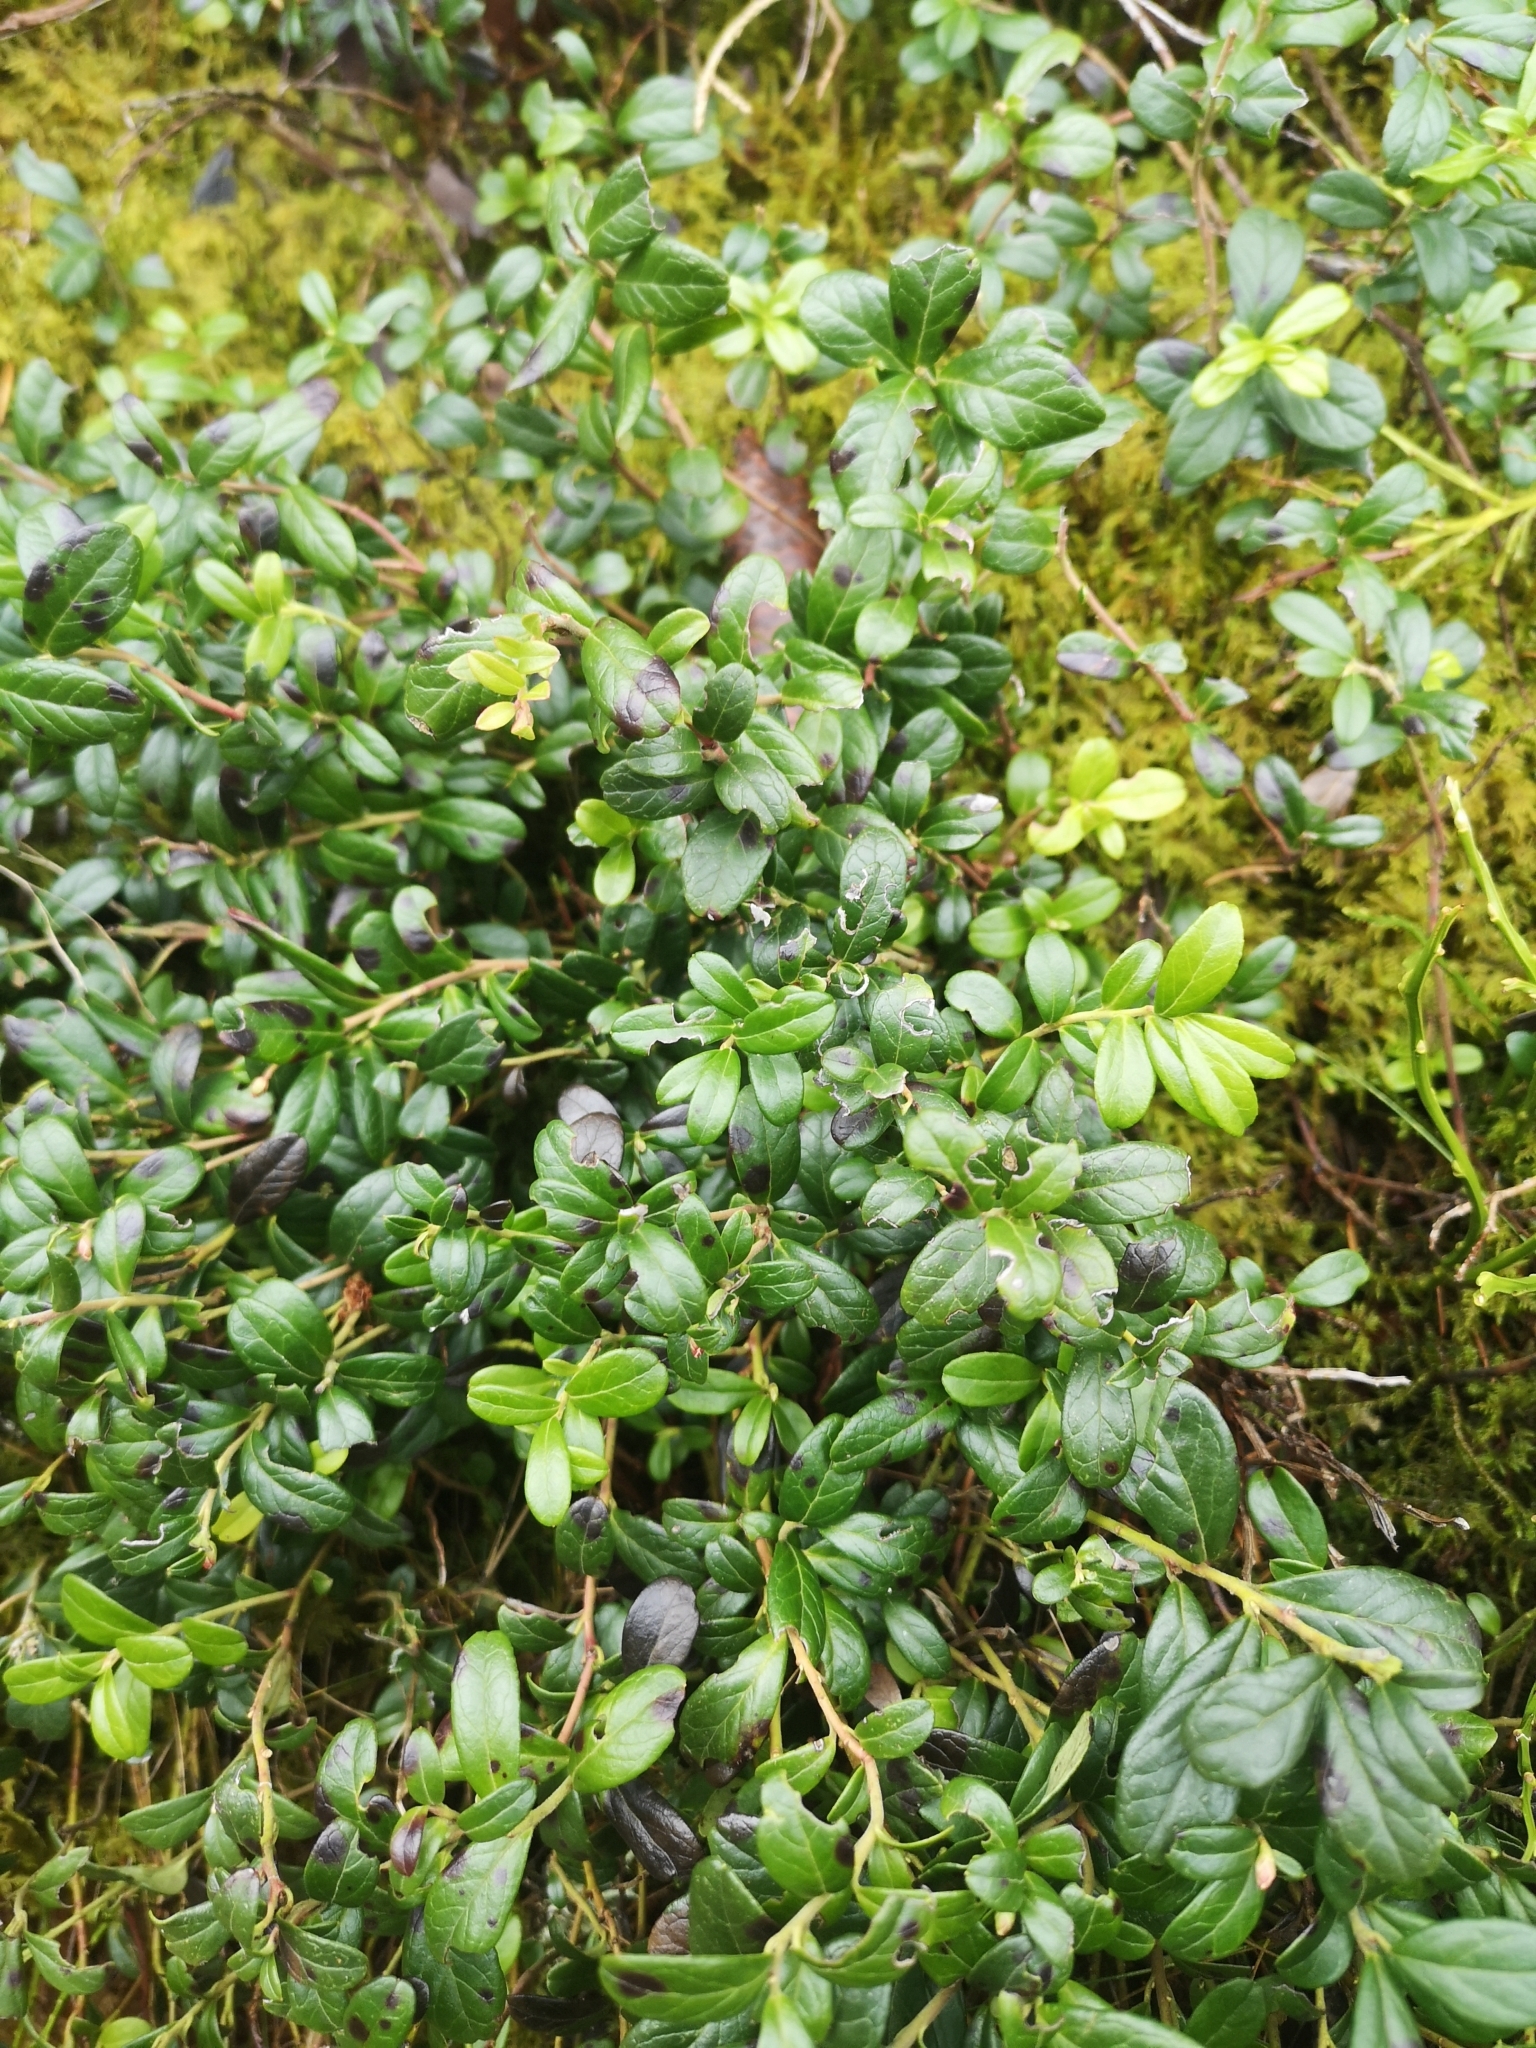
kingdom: Plantae
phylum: Tracheophyta
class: Magnoliopsida
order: Ericales
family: Ericaceae
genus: Vaccinium
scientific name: Vaccinium vitis-idaea
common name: Cowberry
